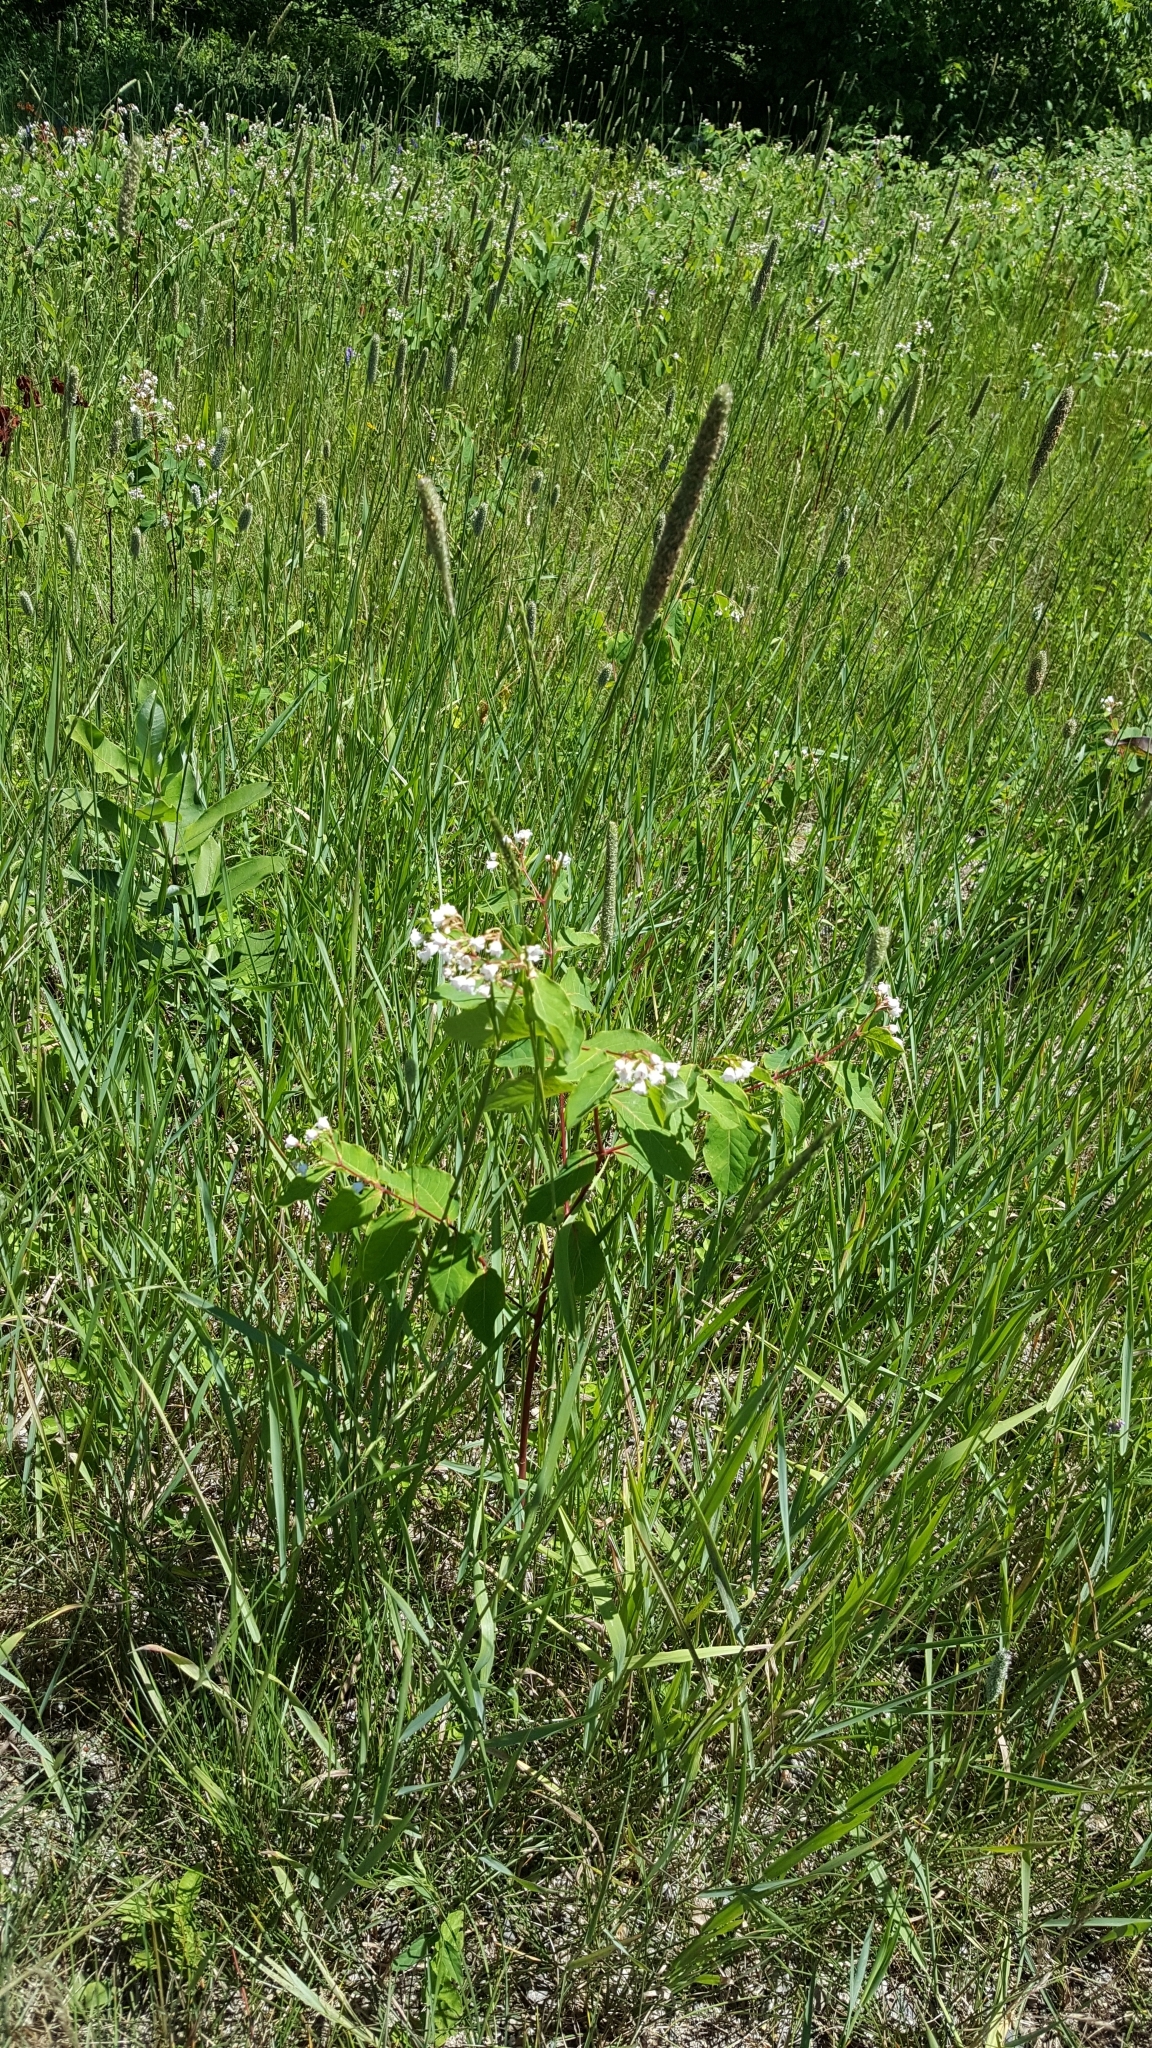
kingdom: Plantae
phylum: Tracheophyta
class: Magnoliopsida
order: Gentianales
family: Apocynaceae
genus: Apocynum
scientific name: Apocynum androsaemifolium
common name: Spreading dogbane
